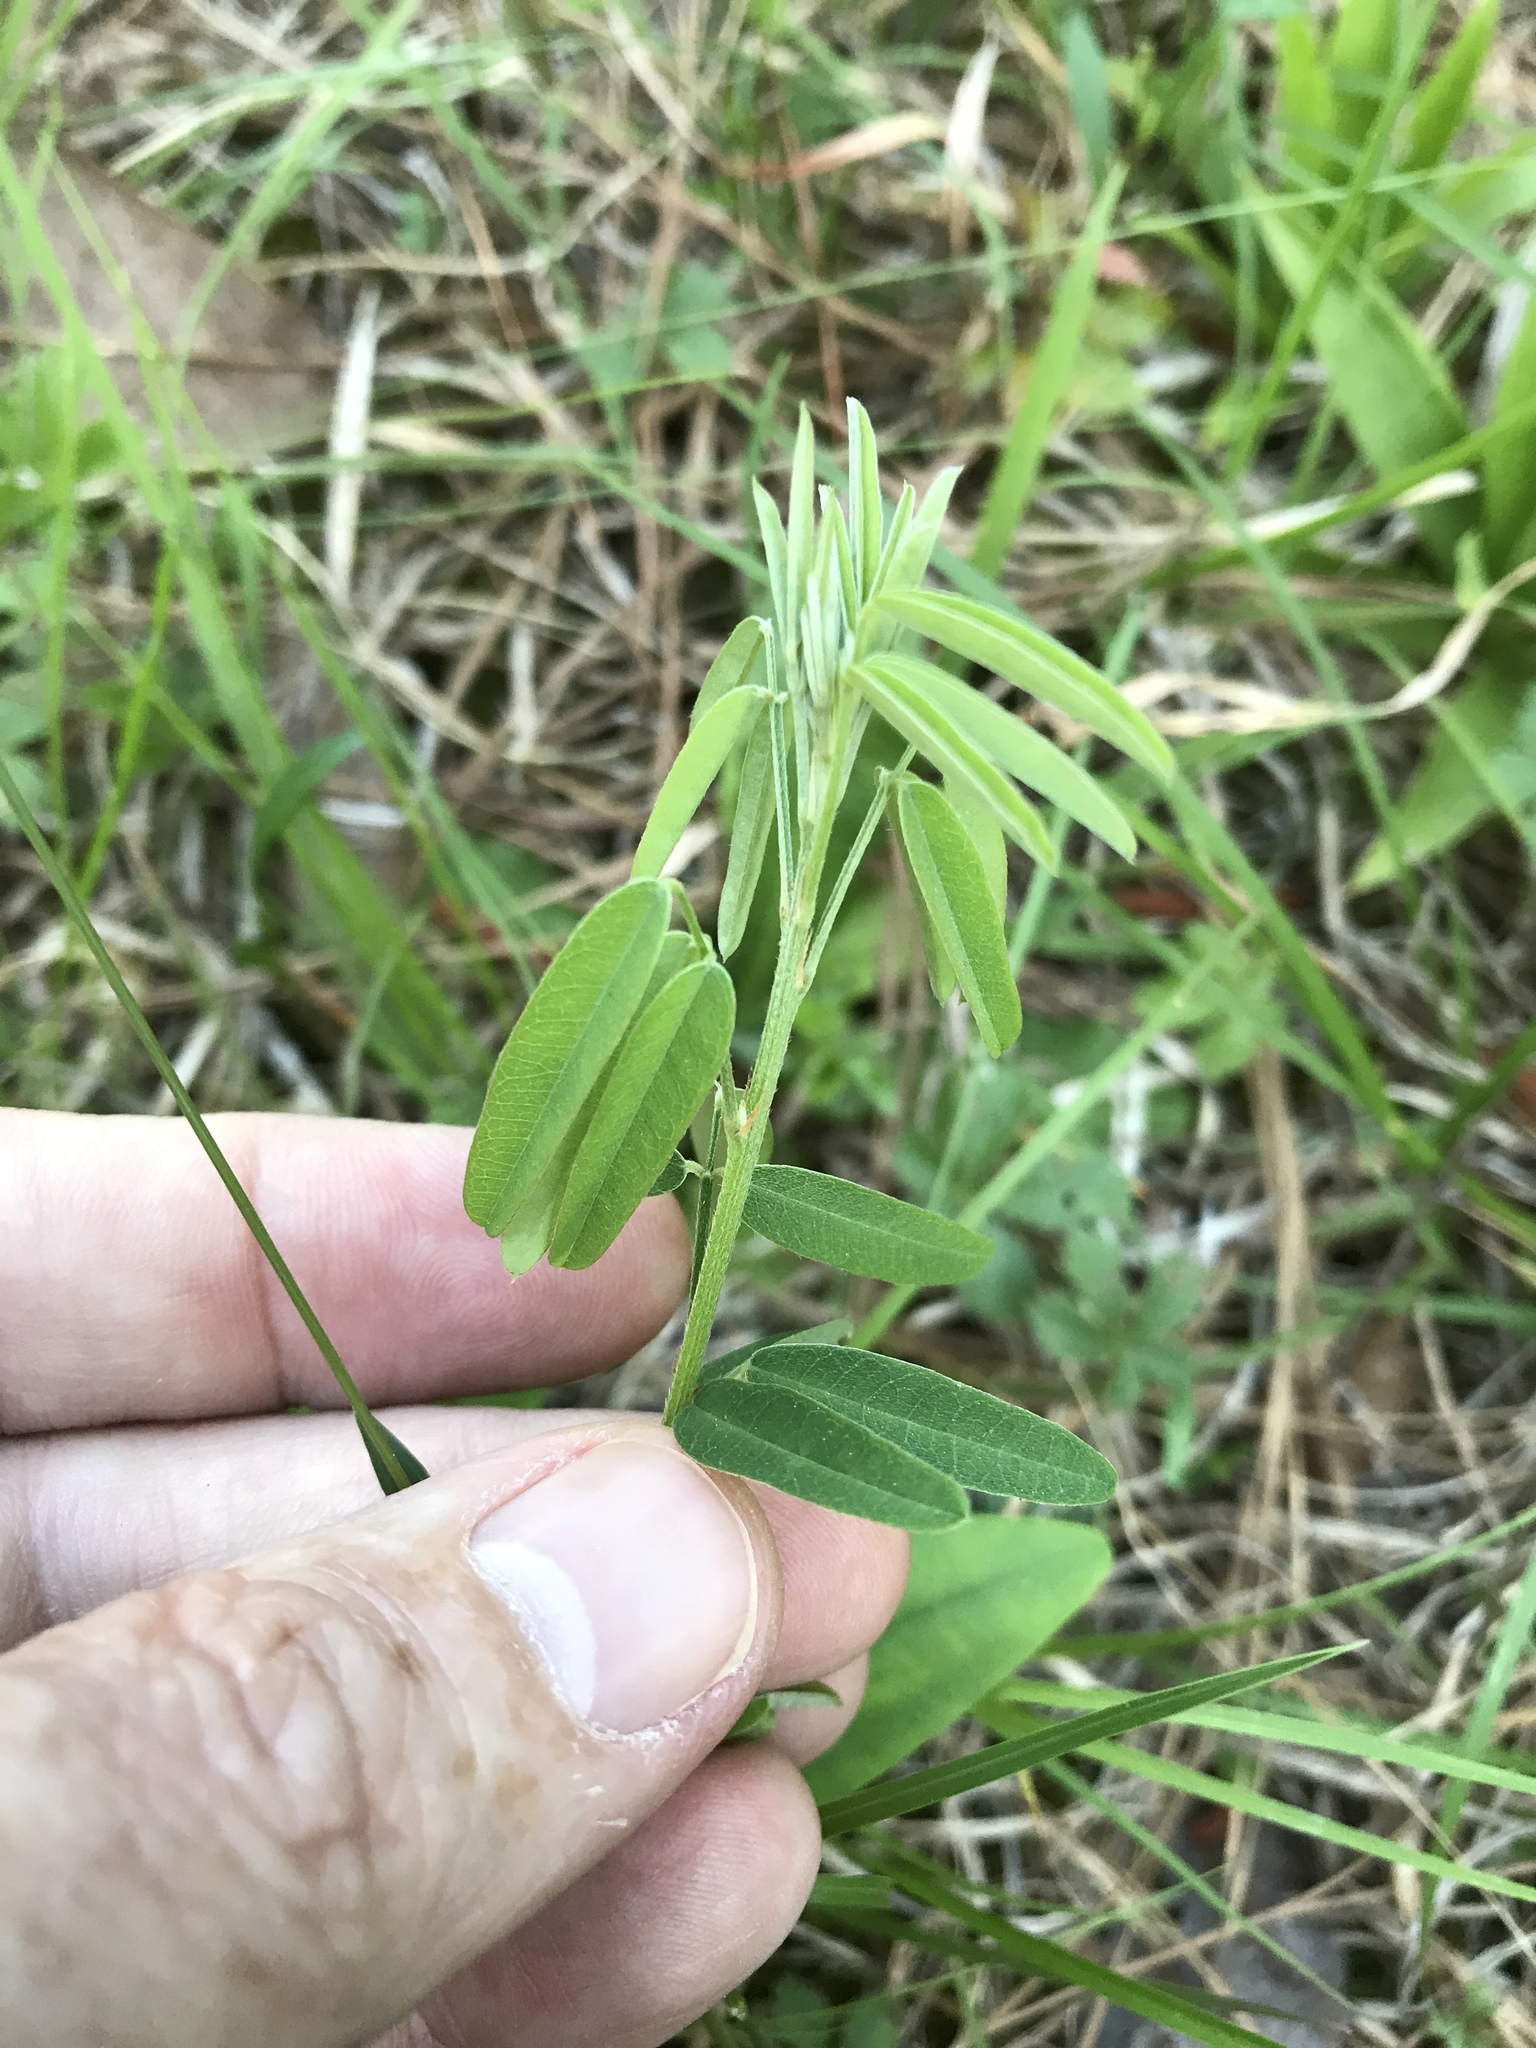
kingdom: Plantae
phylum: Tracheophyta
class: Magnoliopsida
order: Fabales
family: Fabaceae
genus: Lespedeza
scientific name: Lespedeza virginica
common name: Slender bush-clover
